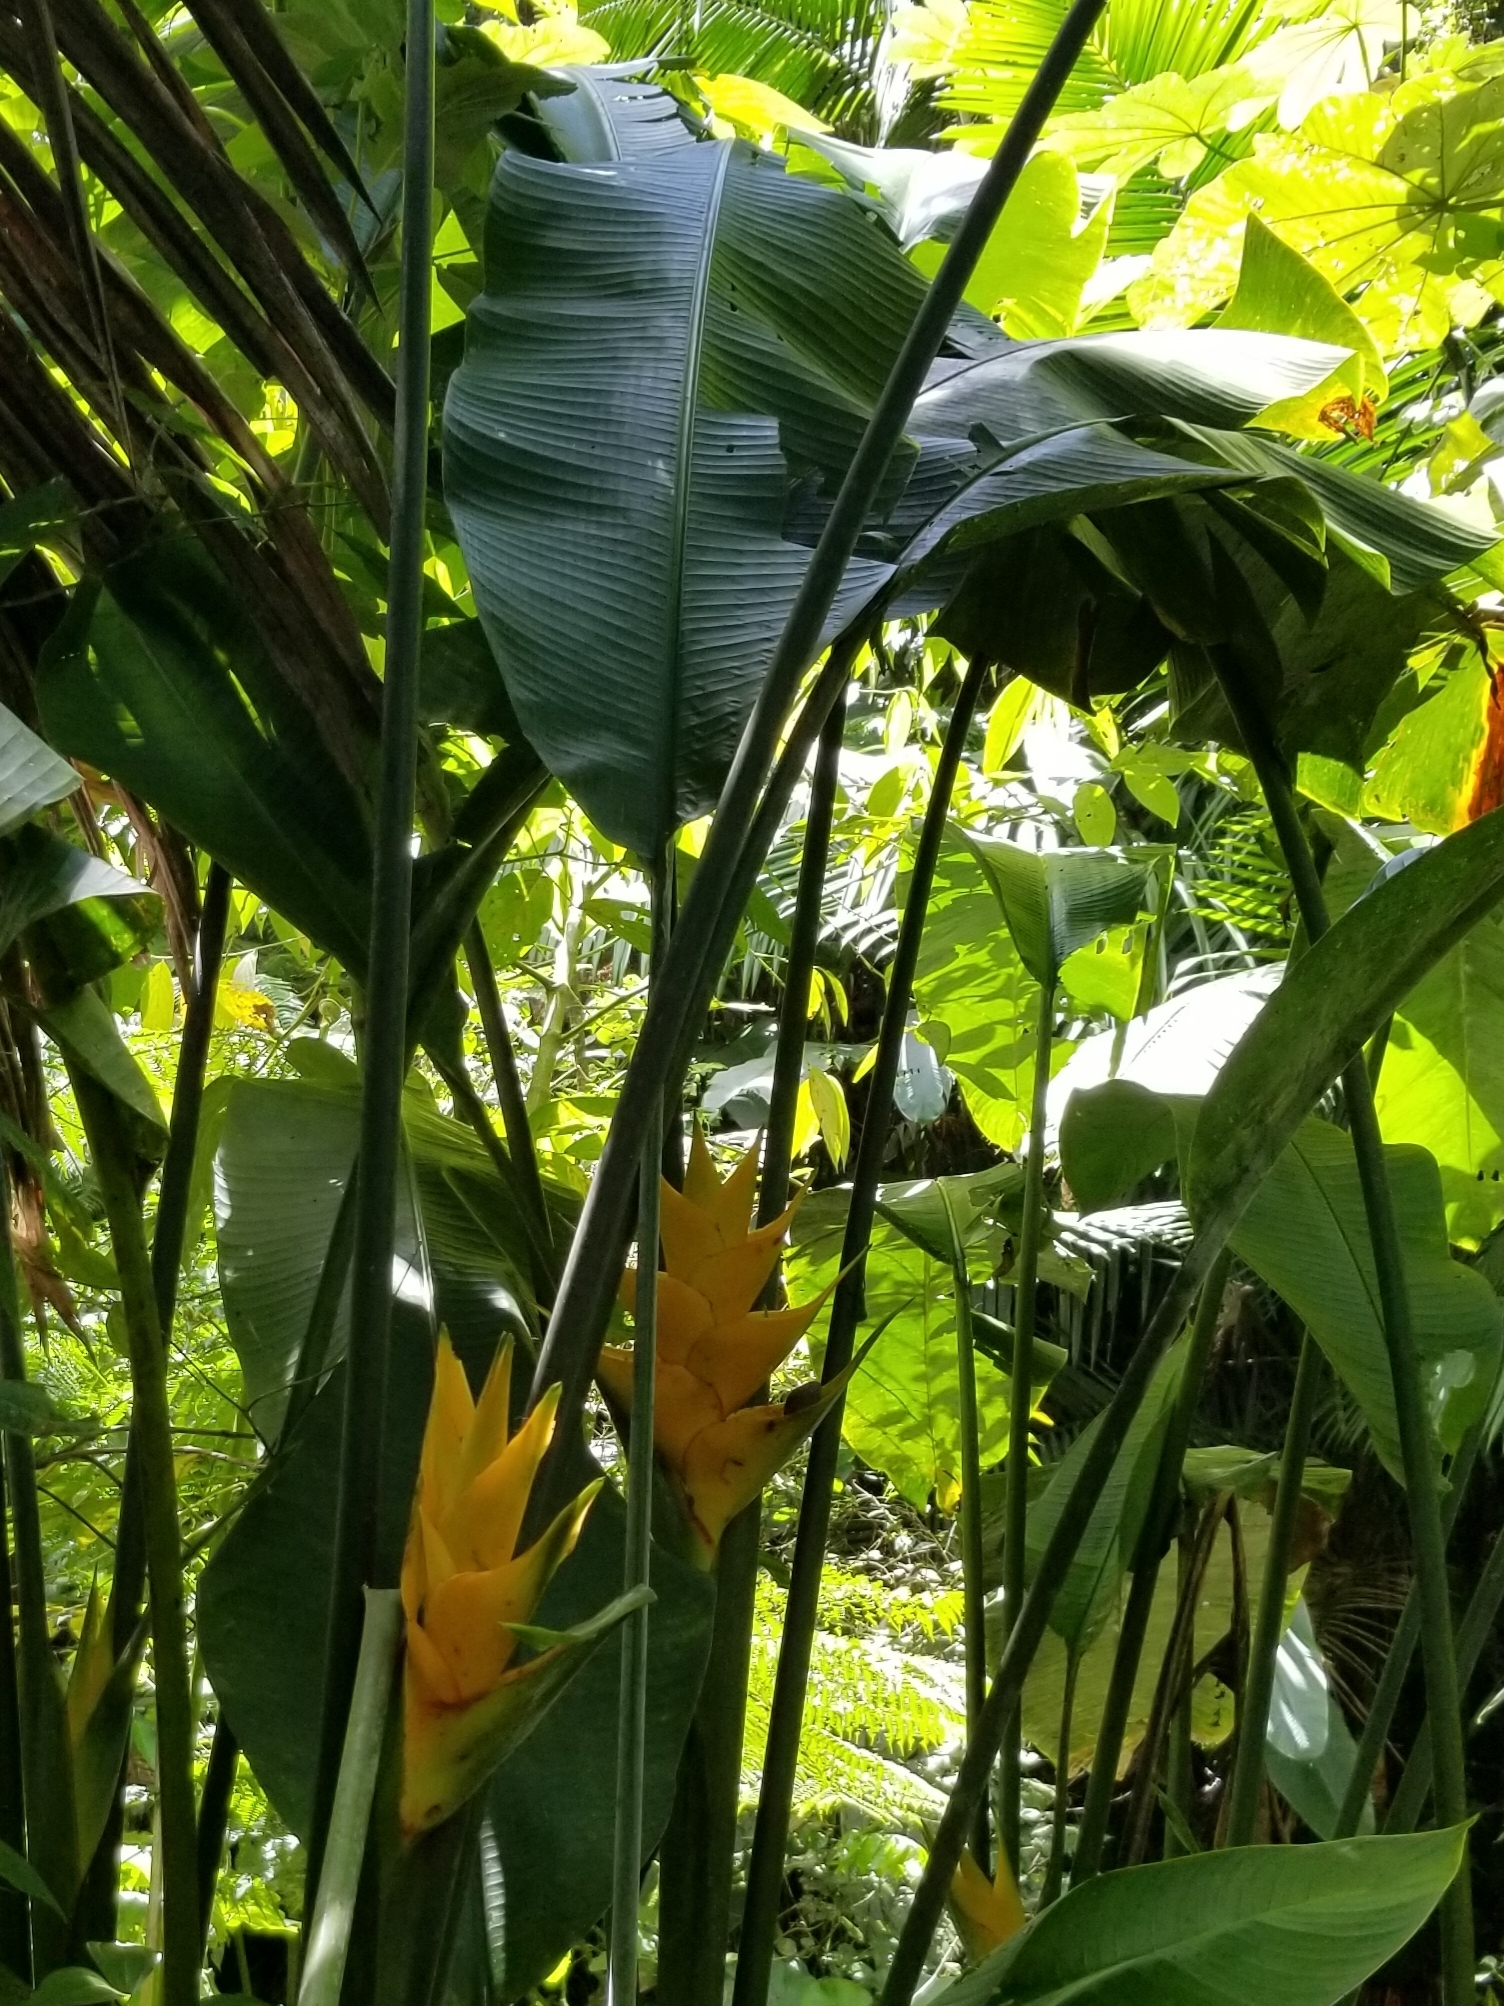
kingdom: Plantae
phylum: Tracheophyta
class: Liliopsida
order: Zingiberales
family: Heliconiaceae
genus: Heliconia
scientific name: Heliconia caribaea
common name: Wild plantain
